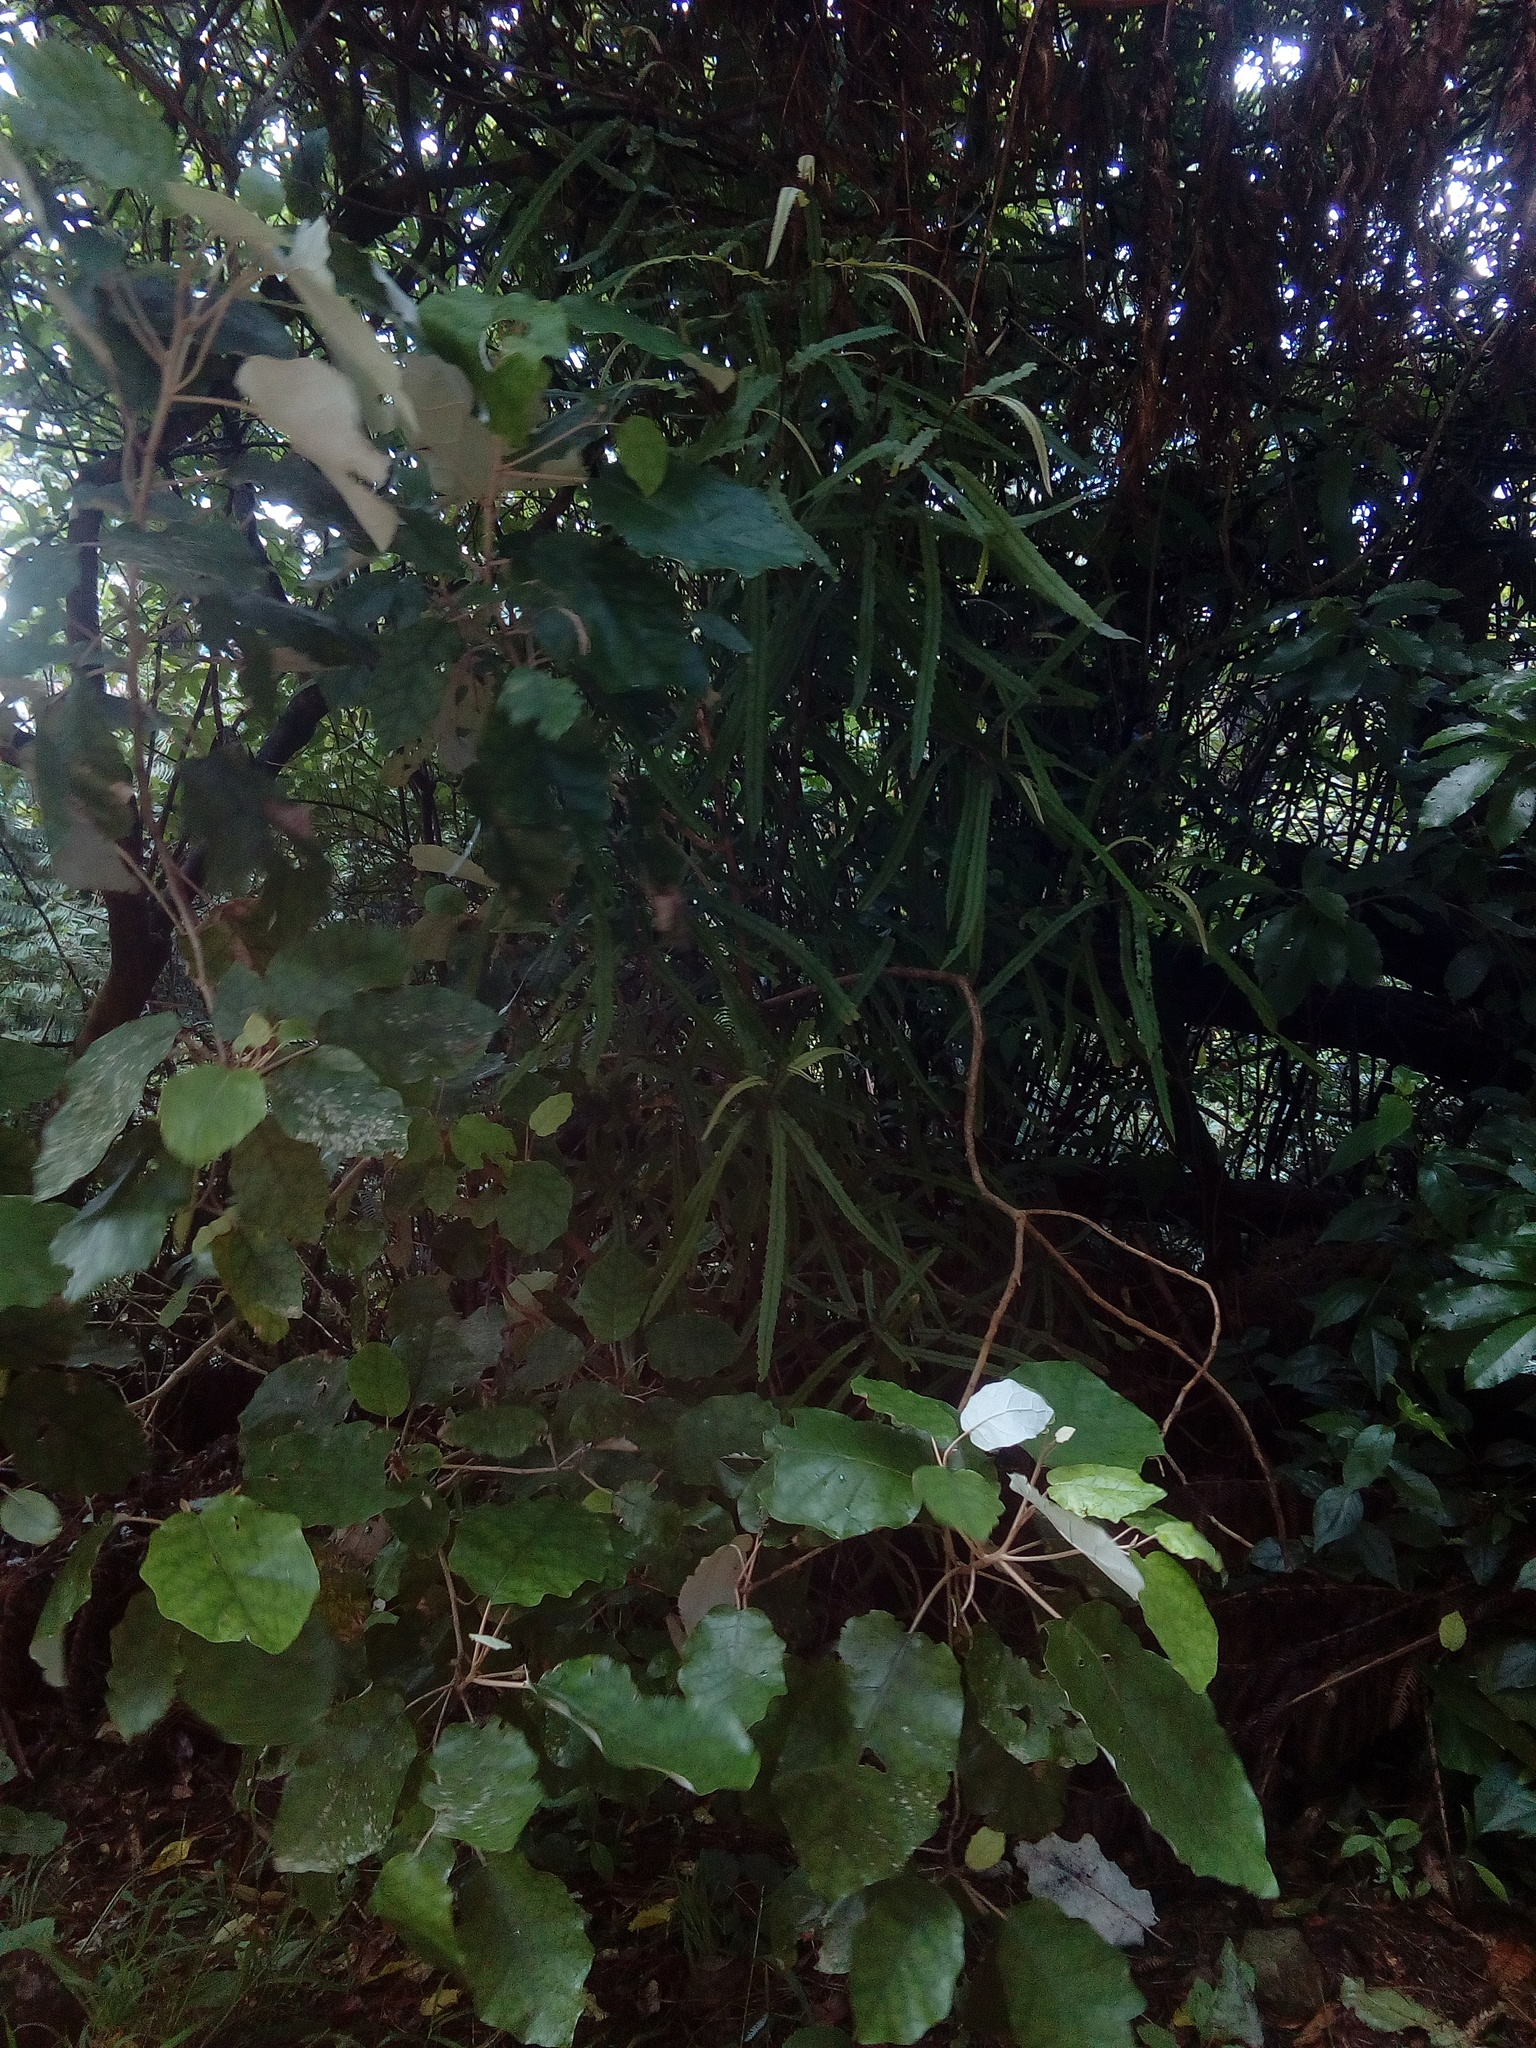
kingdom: Plantae
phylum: Tracheophyta
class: Magnoliopsida
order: Proteales
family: Proteaceae
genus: Knightia
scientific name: Knightia excelsa
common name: New zealand-honeysuckle
